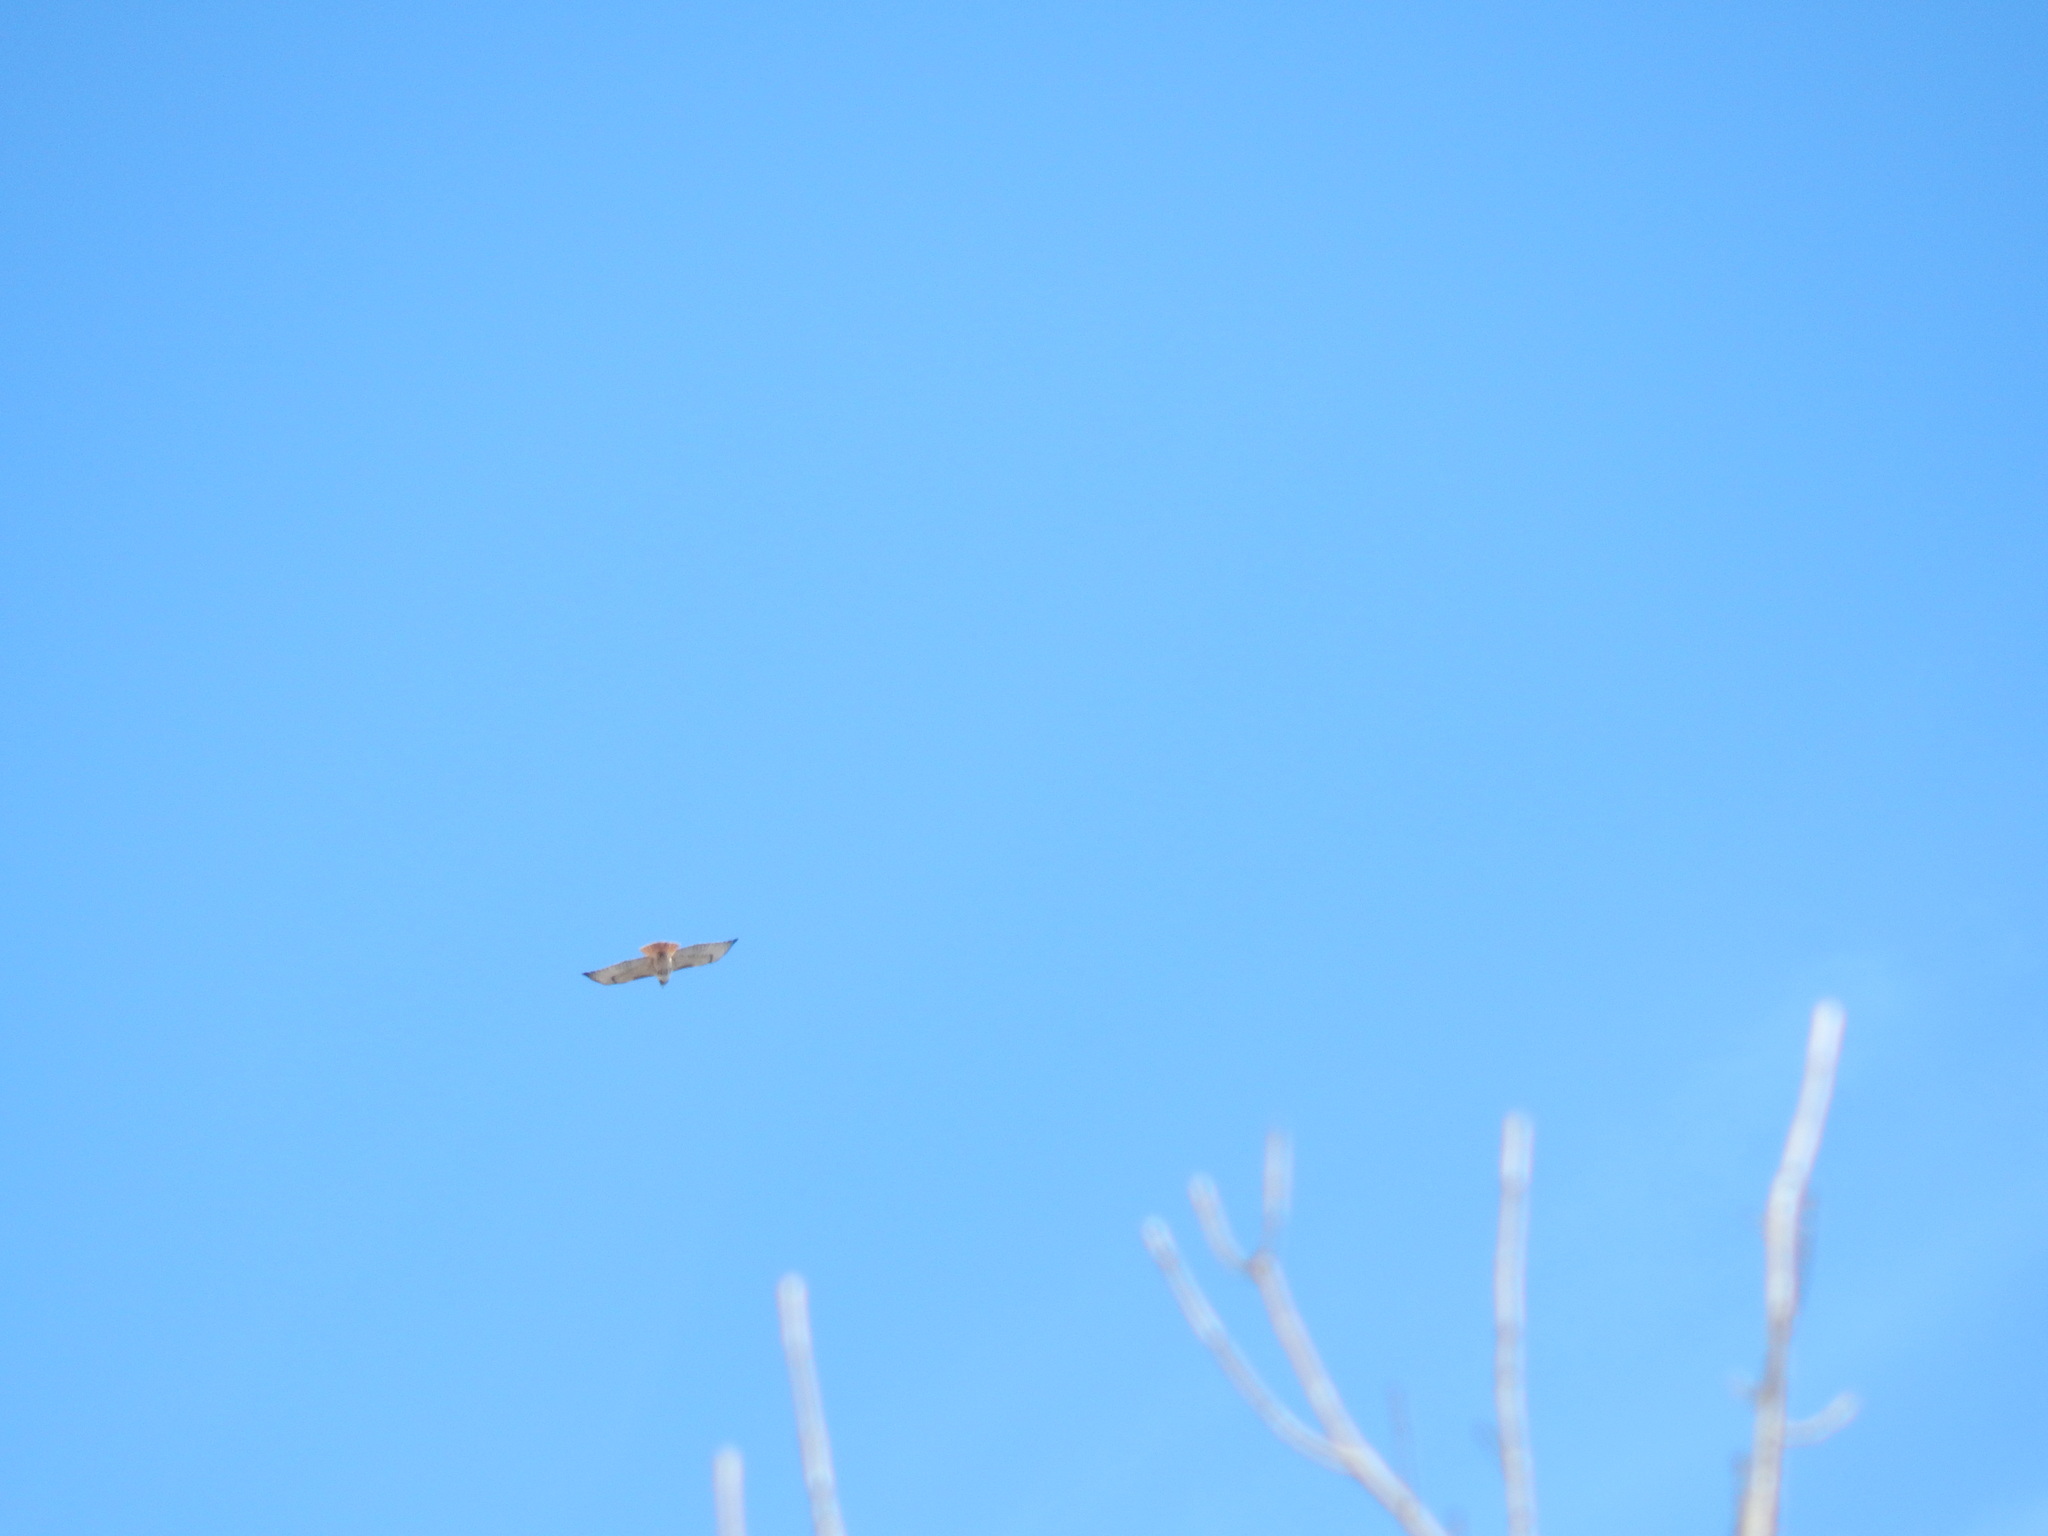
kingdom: Animalia
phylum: Chordata
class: Aves
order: Accipitriformes
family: Accipitridae
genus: Buteo
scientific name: Buteo jamaicensis
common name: Red-tailed hawk
